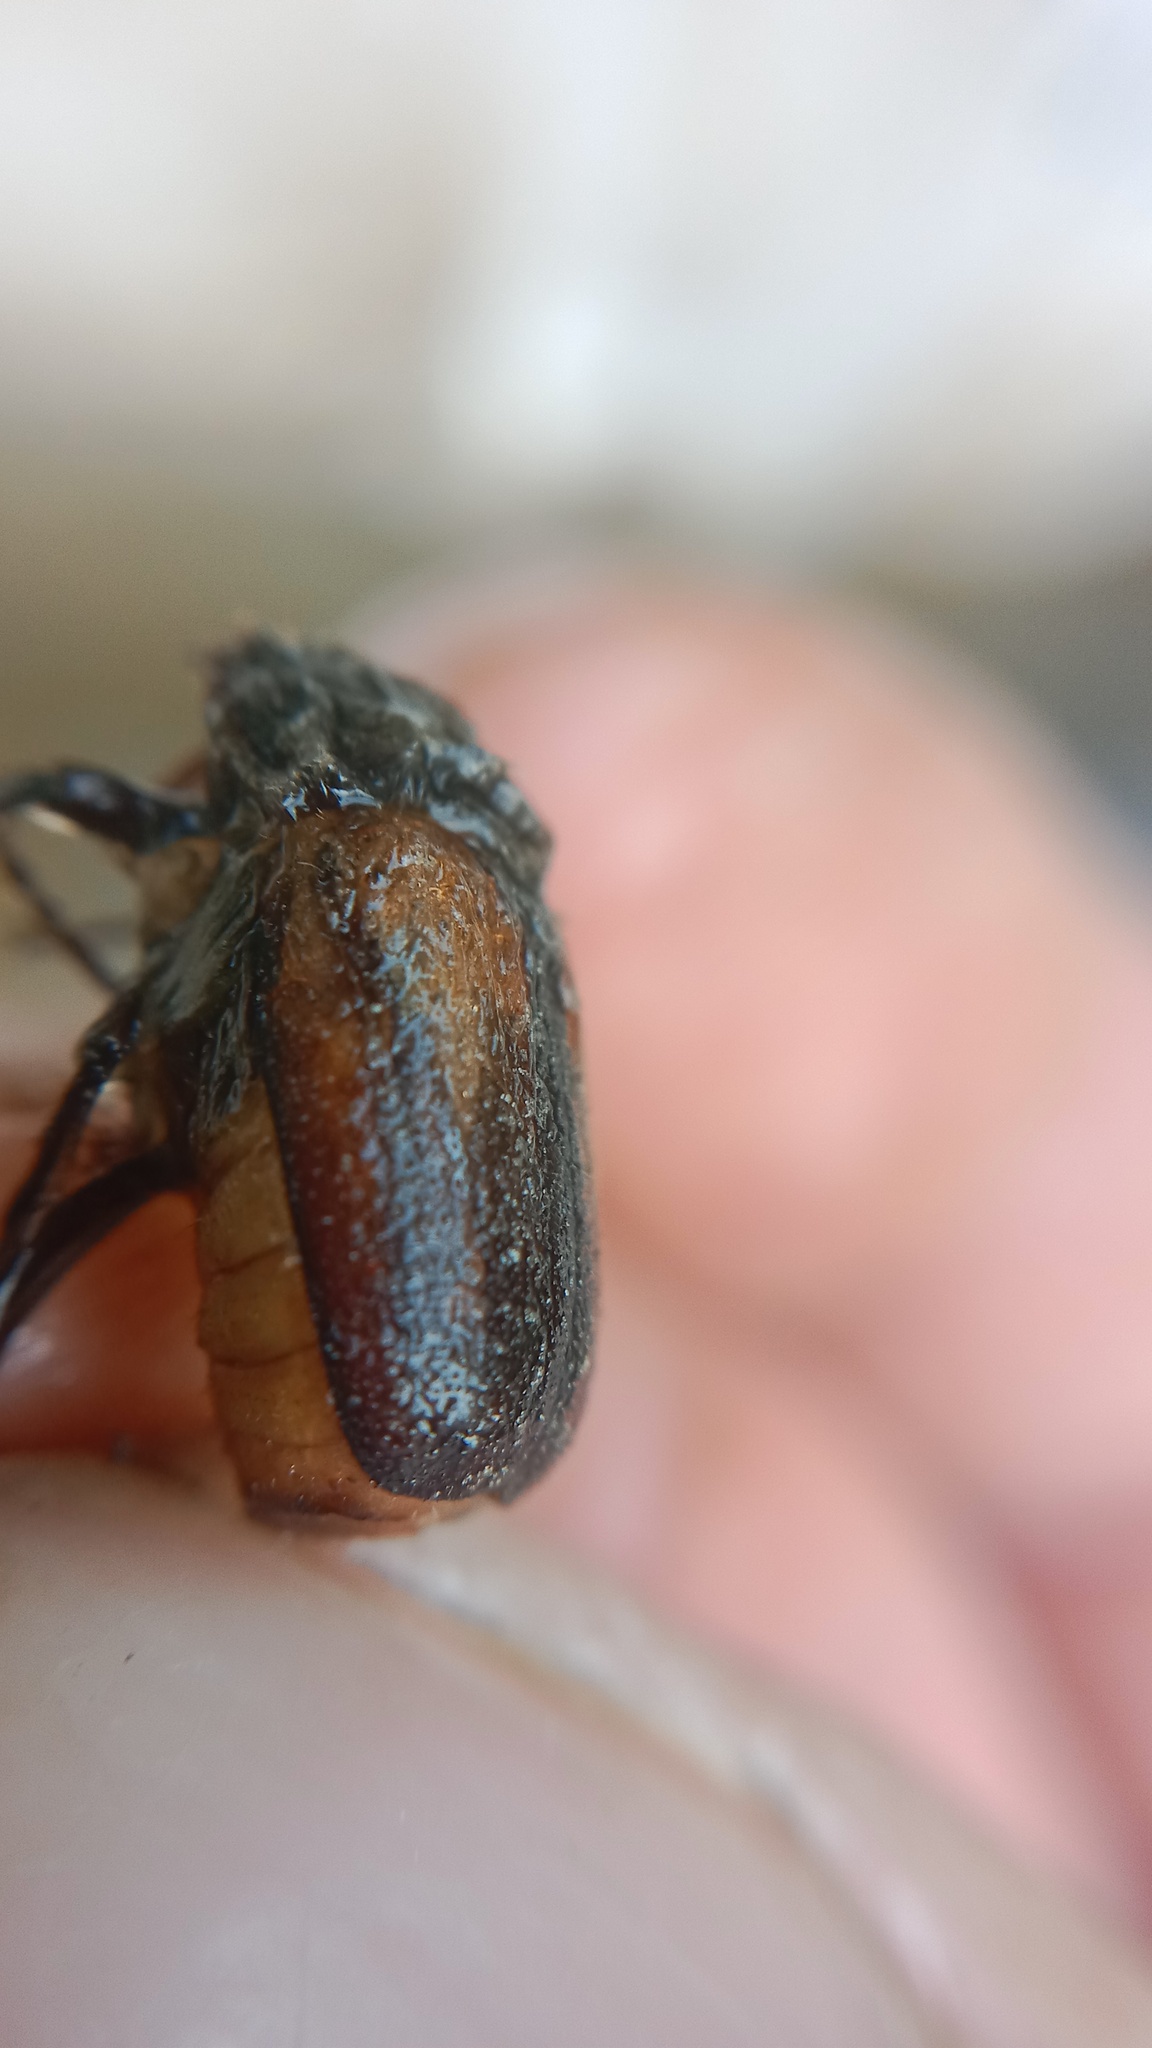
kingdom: Animalia
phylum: Arthropoda
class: Insecta
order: Coleoptera
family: Scarabaeidae
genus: Amphimallon
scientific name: Amphimallon ruficorne
